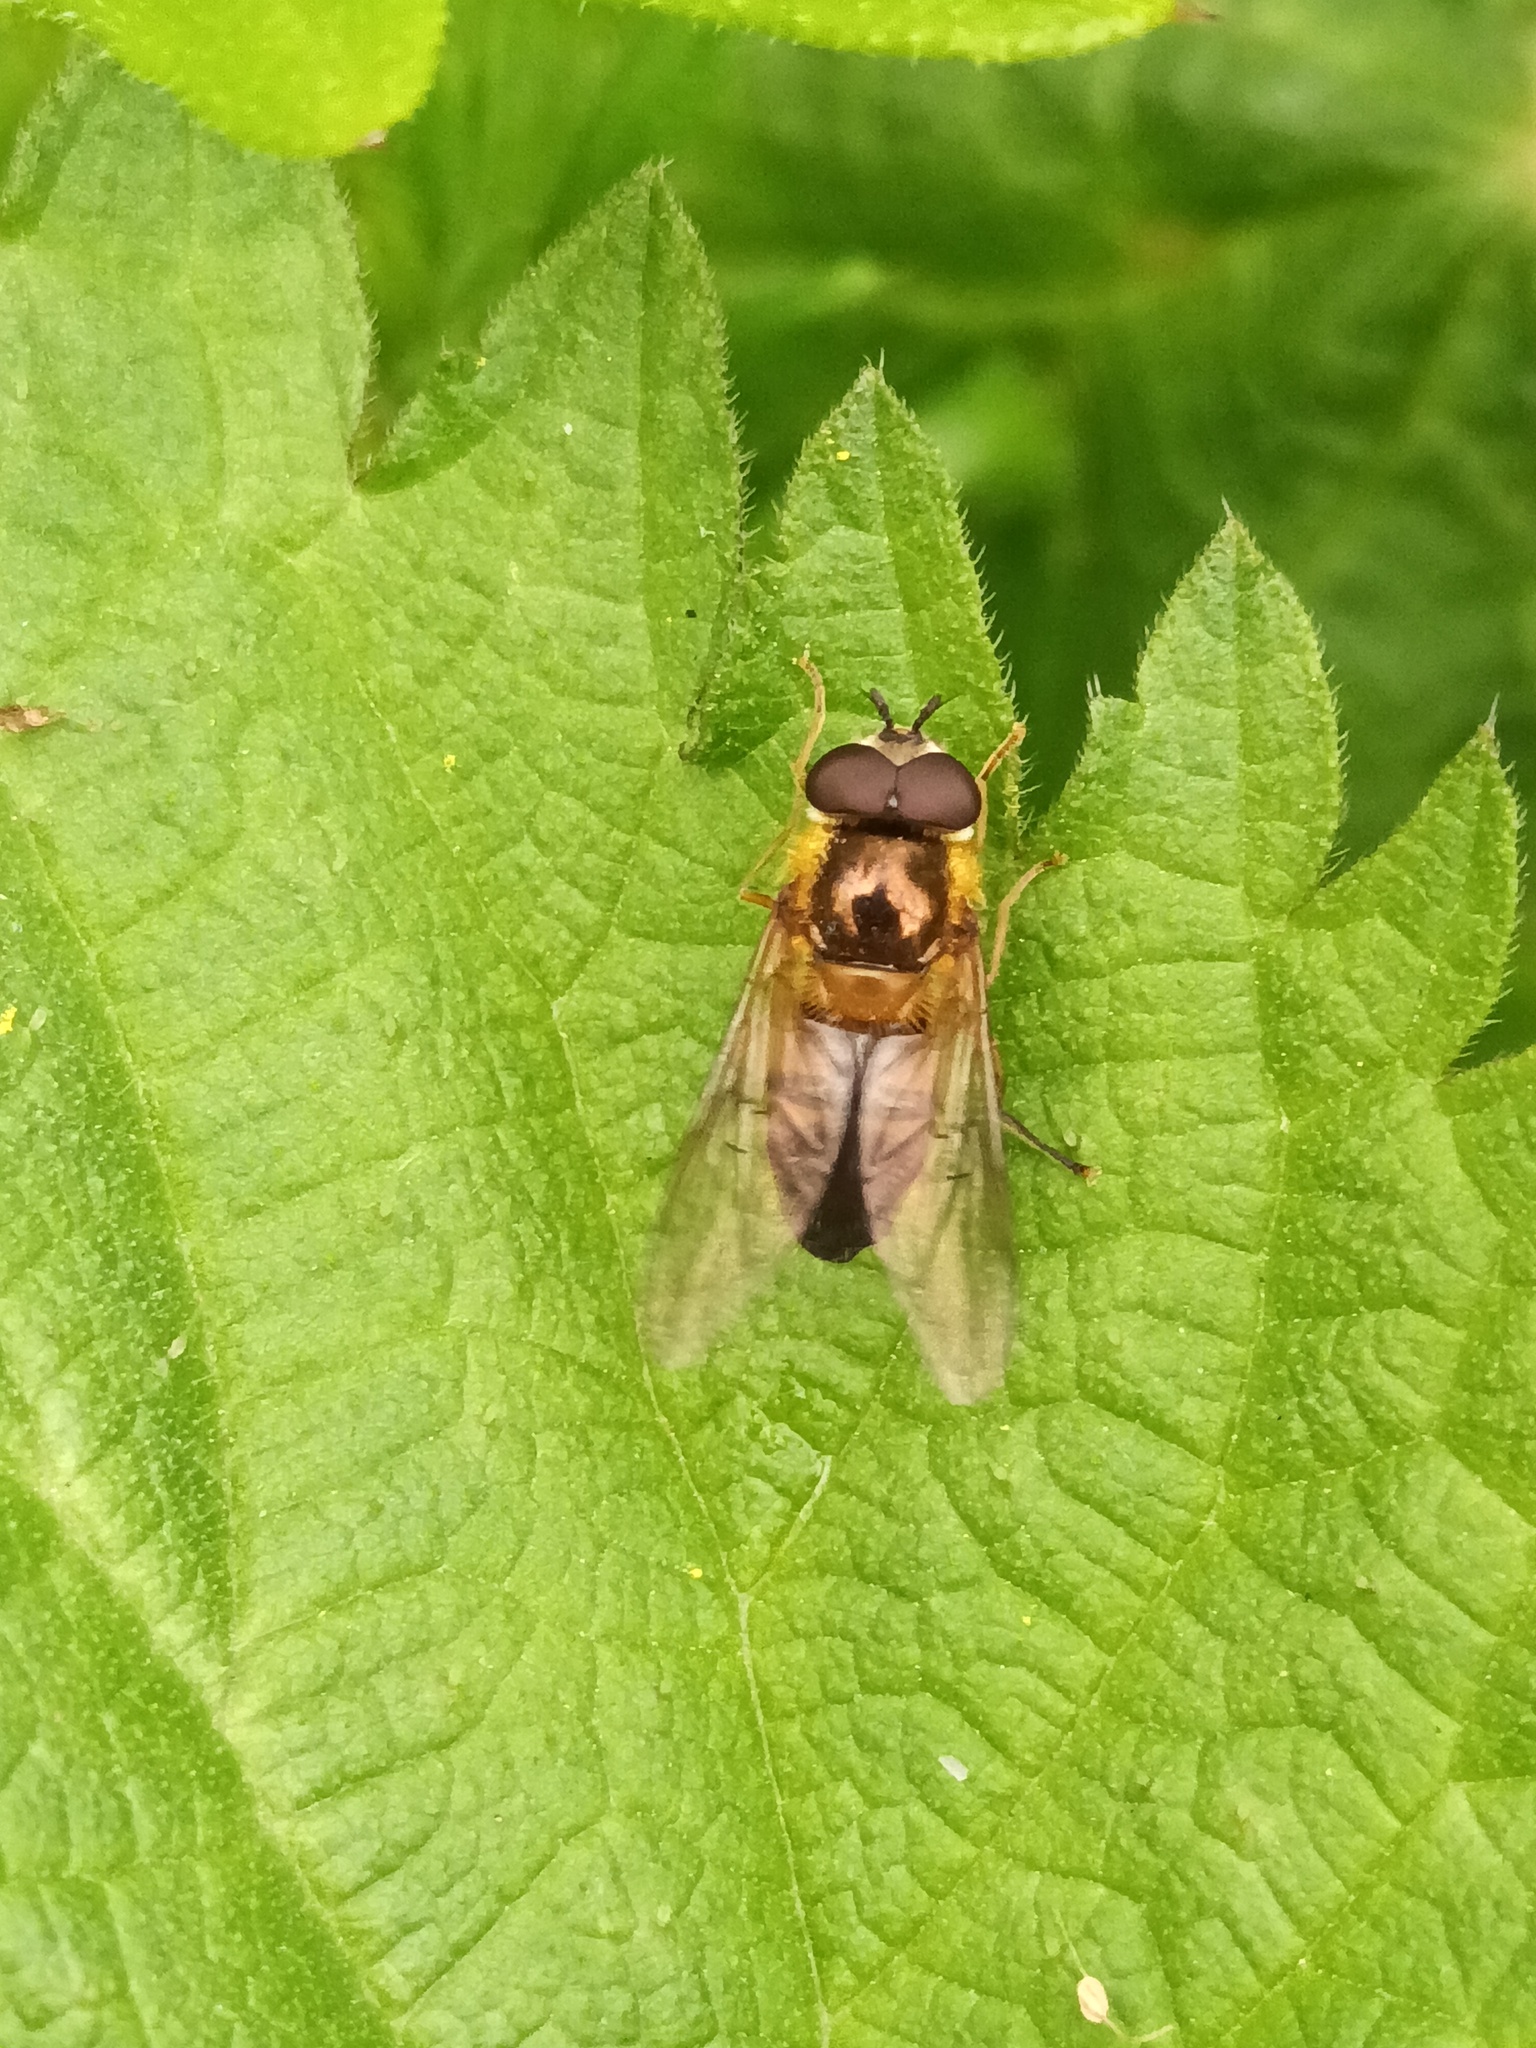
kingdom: Animalia
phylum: Arthropoda
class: Insecta
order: Diptera
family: Syrphidae
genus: Epistrophe
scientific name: Epistrophe eligans
